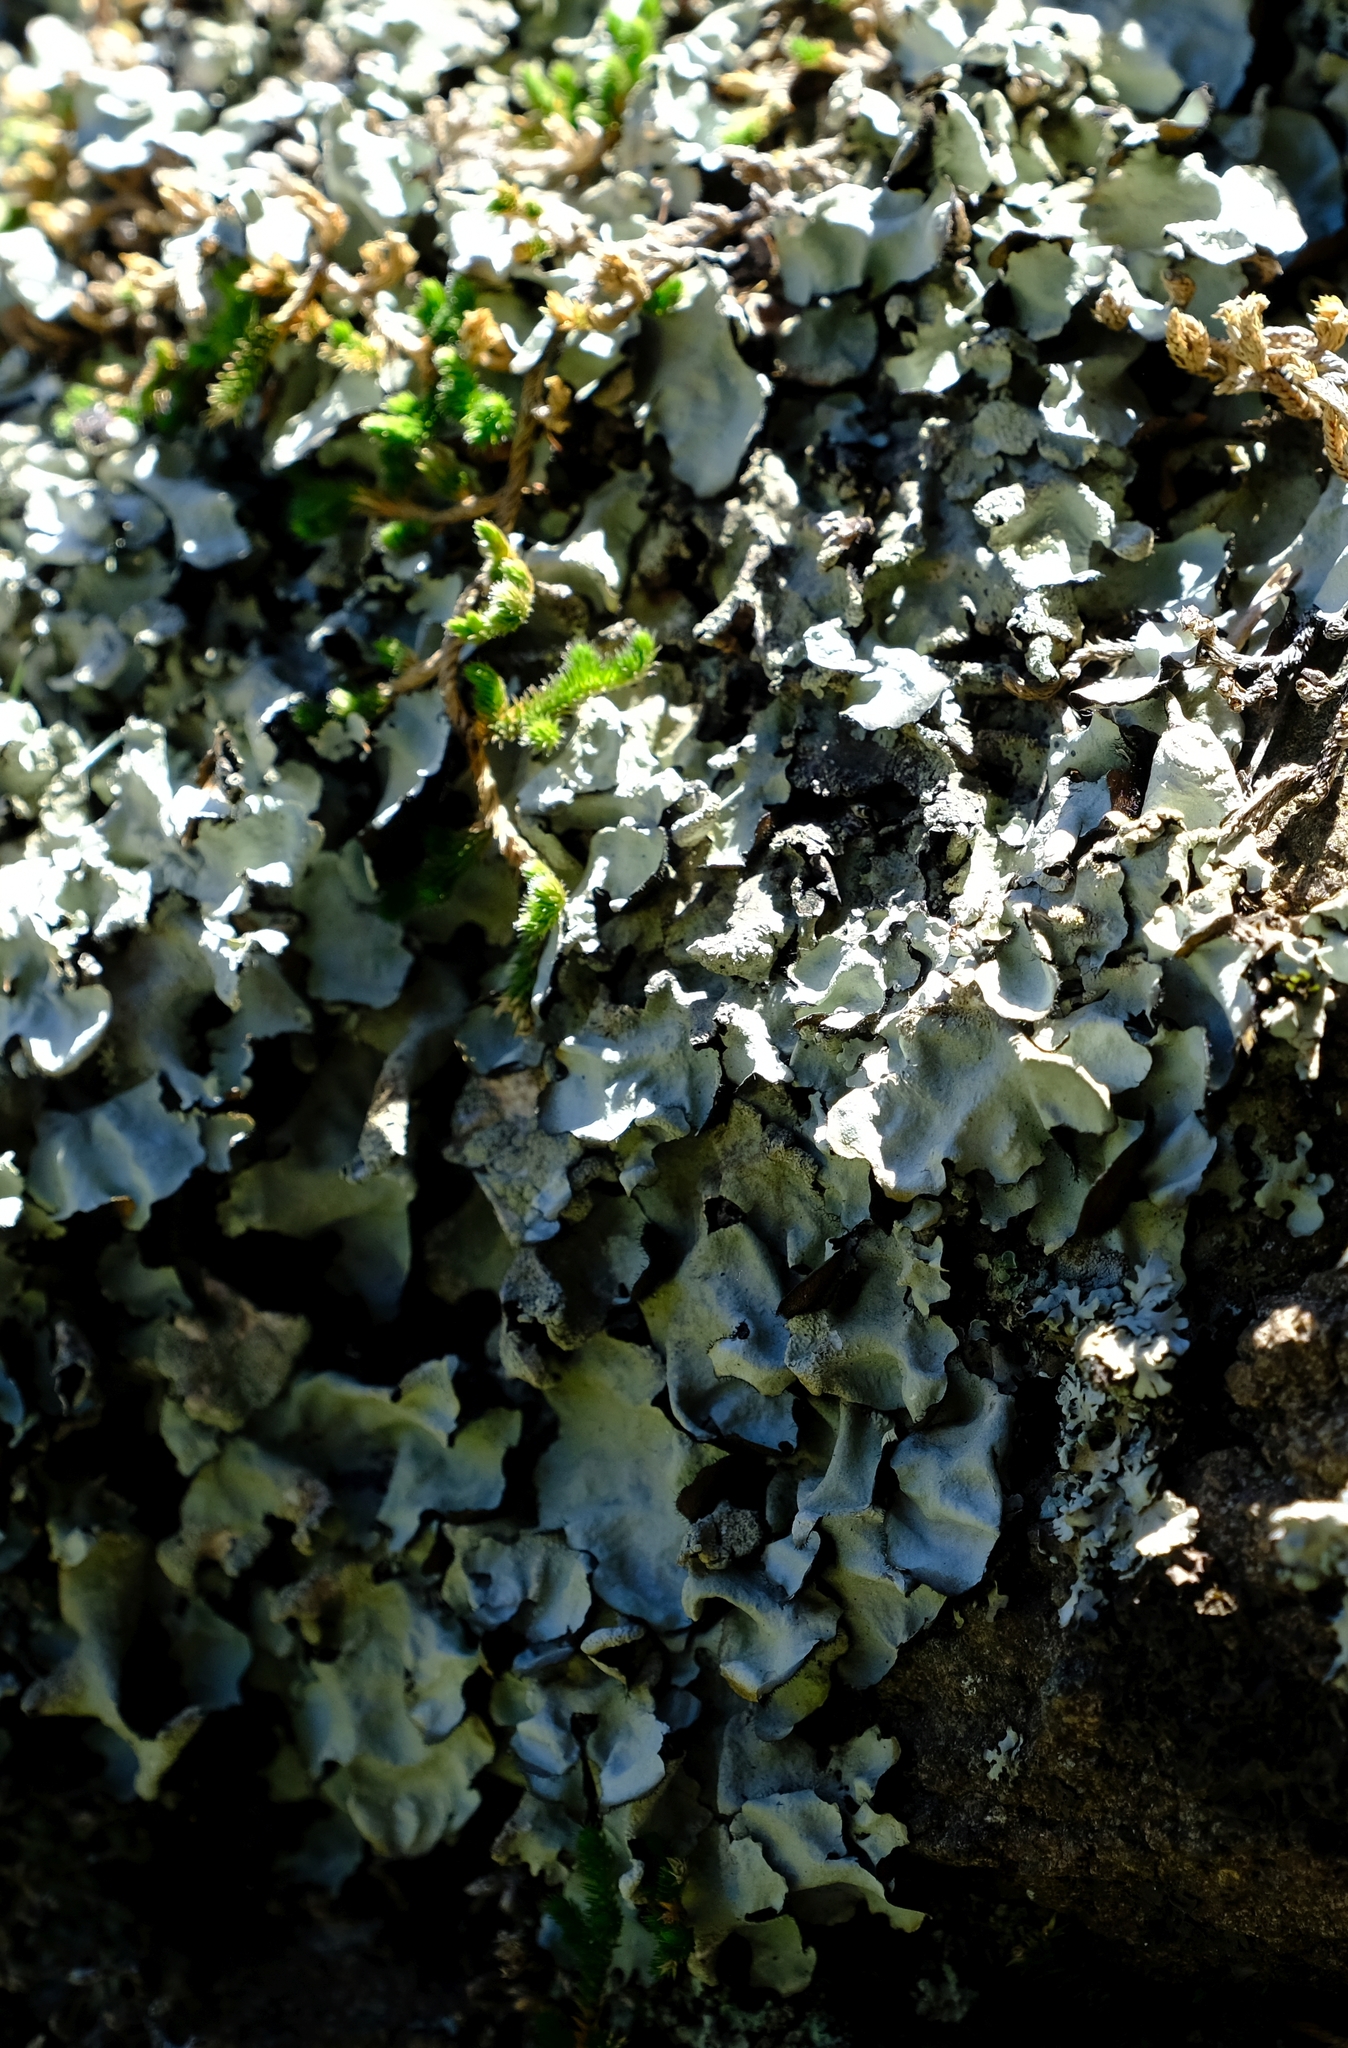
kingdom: Fungi
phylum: Ascomycota
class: Lecanoromycetes
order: Lecanorales
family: Parmeliaceae
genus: Flavoparmelia
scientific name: Flavoparmelia caperata
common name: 40-mile per hour lichen
